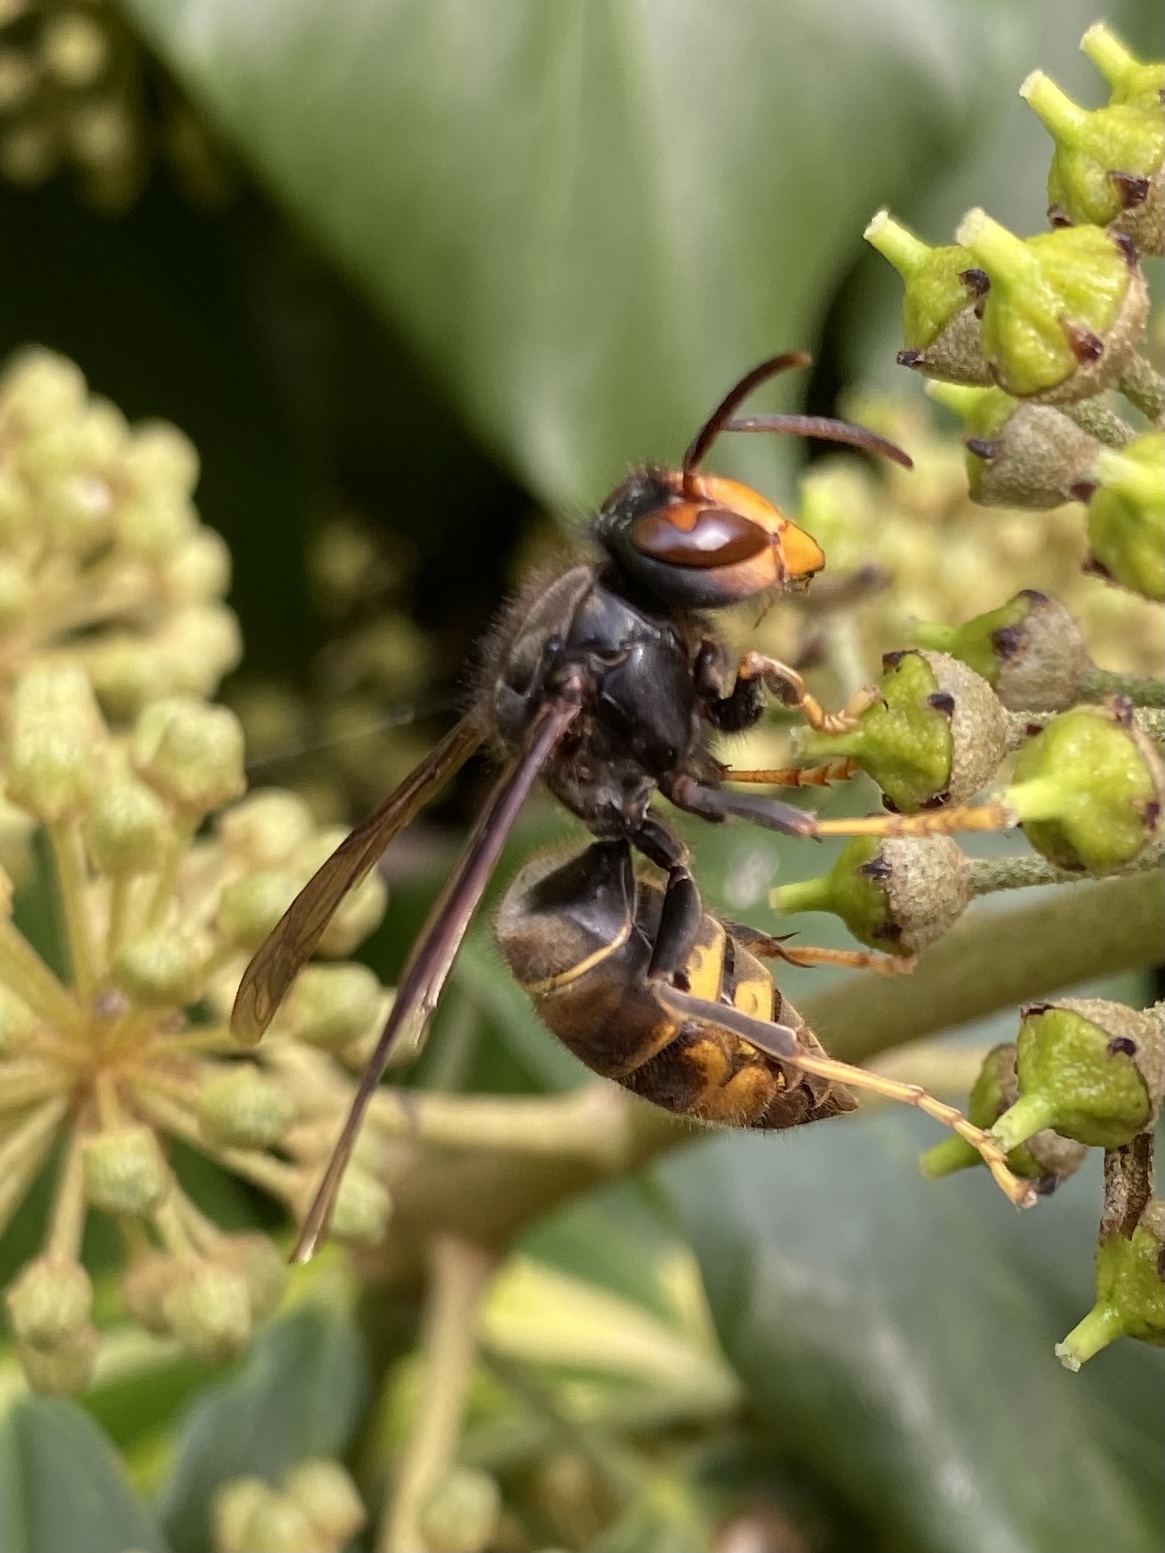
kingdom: Animalia
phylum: Arthropoda
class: Insecta
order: Hymenoptera
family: Vespidae
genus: Vespa
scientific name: Vespa velutina
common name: Asian hornet
